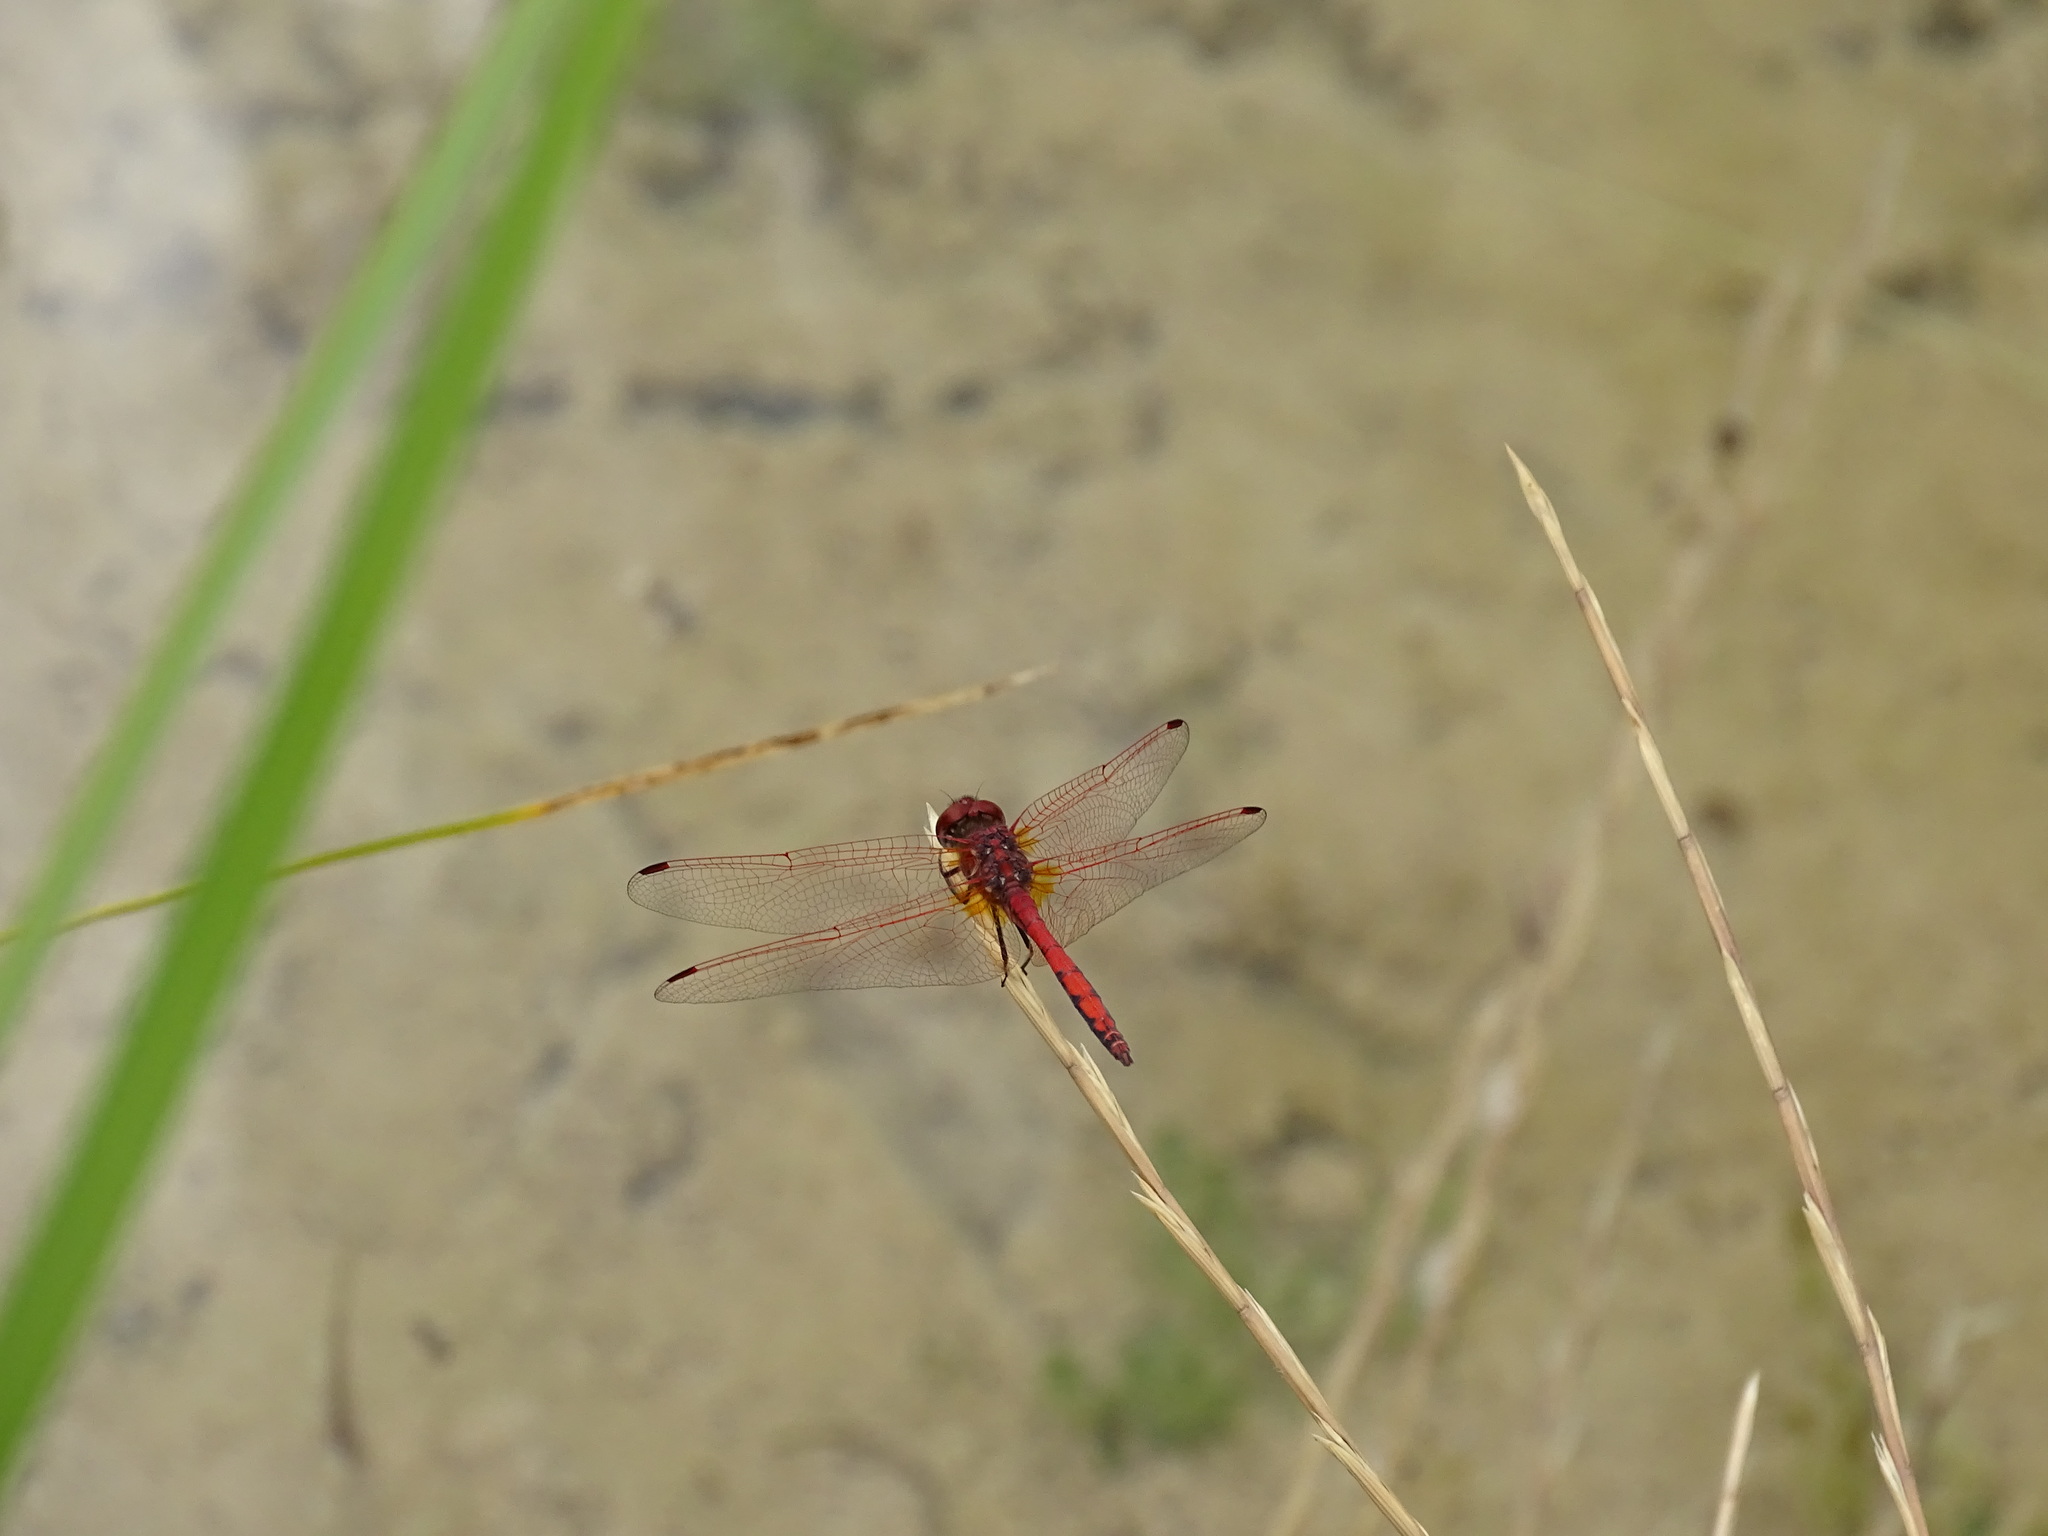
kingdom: Animalia
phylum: Arthropoda
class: Insecta
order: Odonata
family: Libellulidae
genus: Trithemis
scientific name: Trithemis arteriosa
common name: Red-veined dropwing
